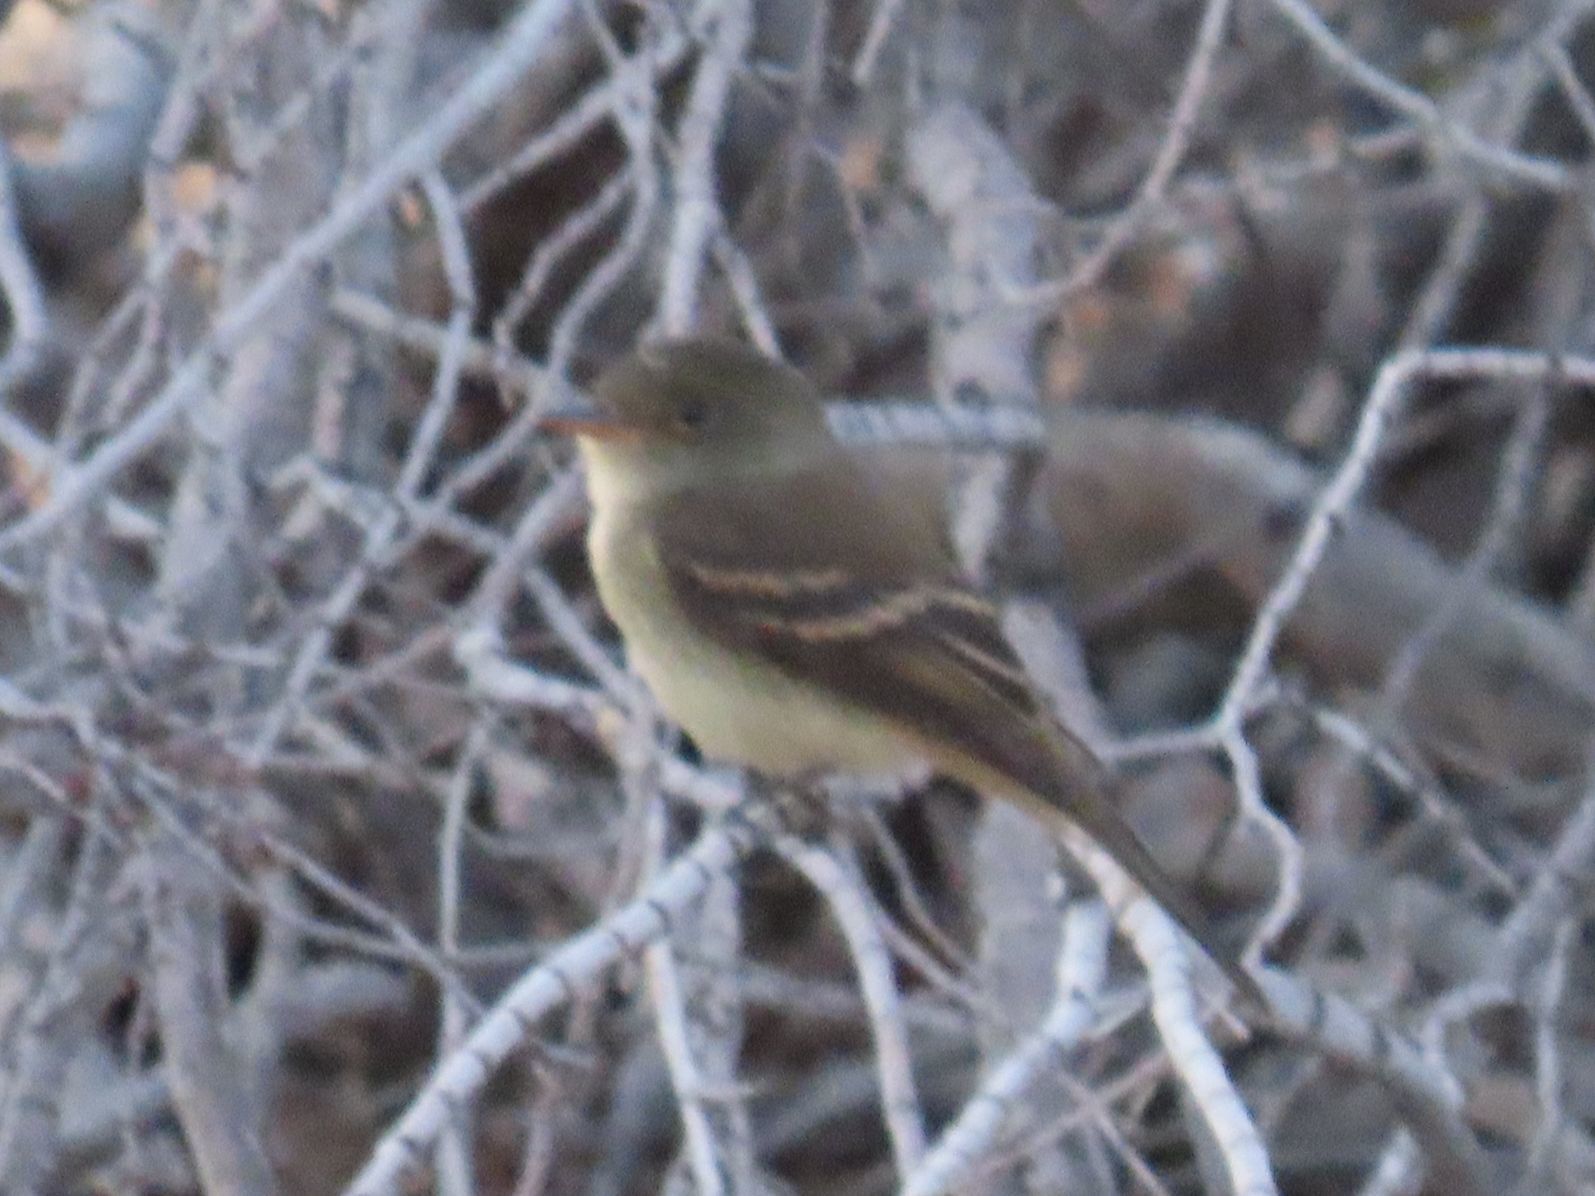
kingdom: Animalia
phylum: Chordata
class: Aves
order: Passeriformes
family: Tyrannidae
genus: Empidonax
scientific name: Empidonax traillii
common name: Willow flycatcher
